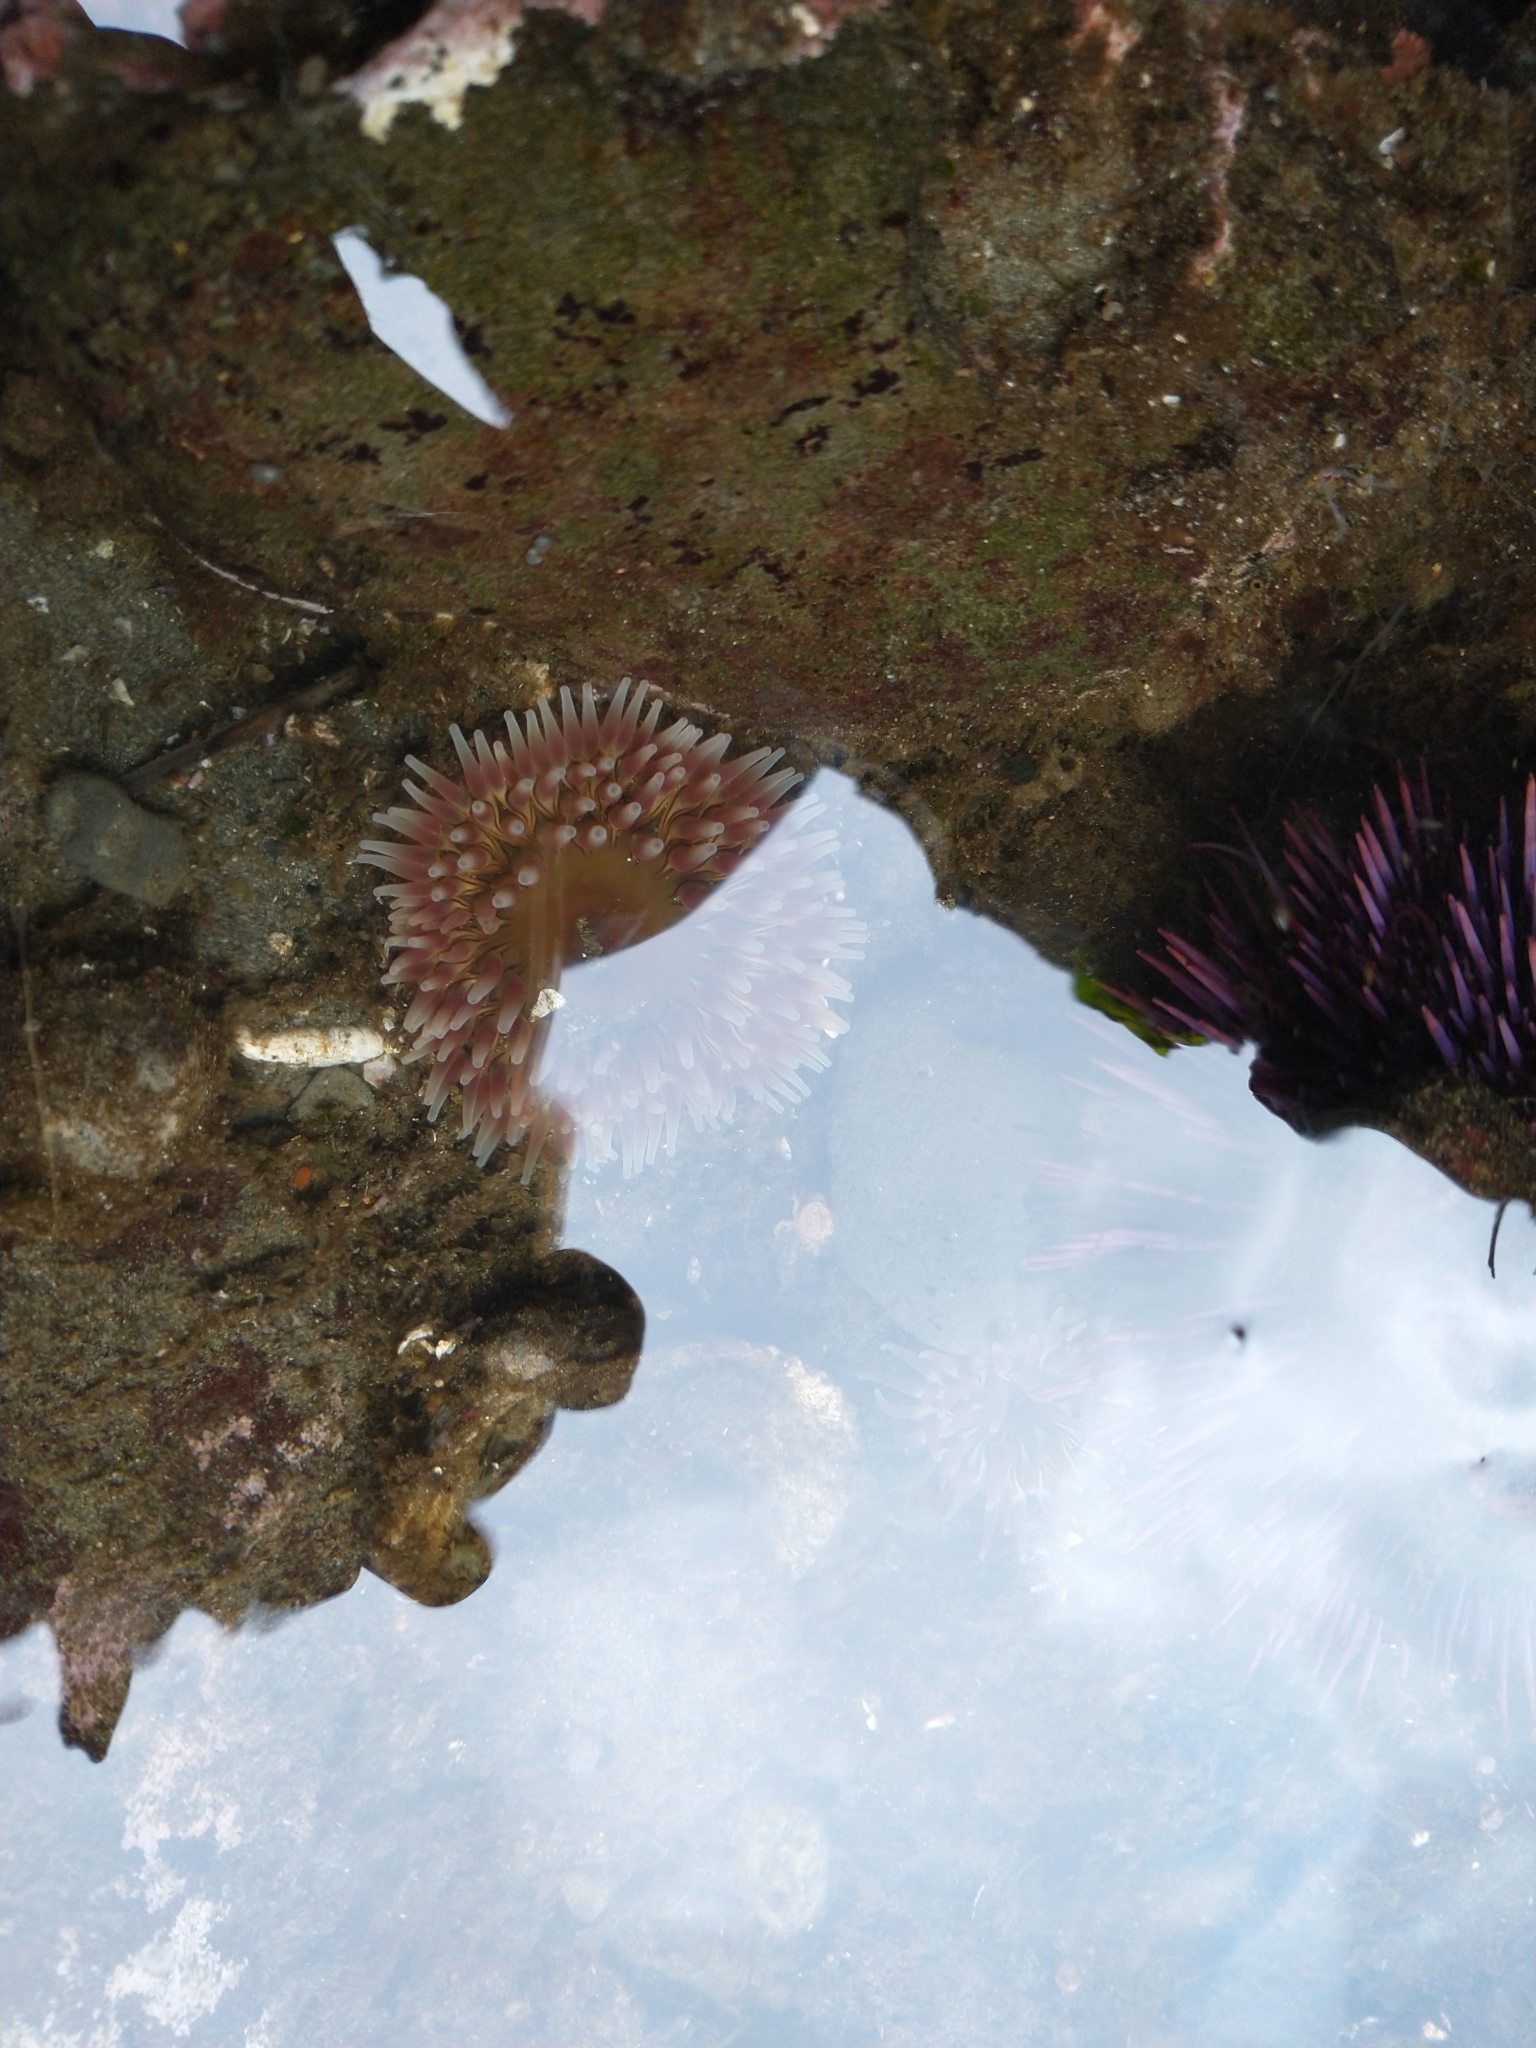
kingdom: Animalia
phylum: Cnidaria
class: Anthozoa
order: Actiniaria
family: Actiniidae
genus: Urticina
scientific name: Urticina clandestina
